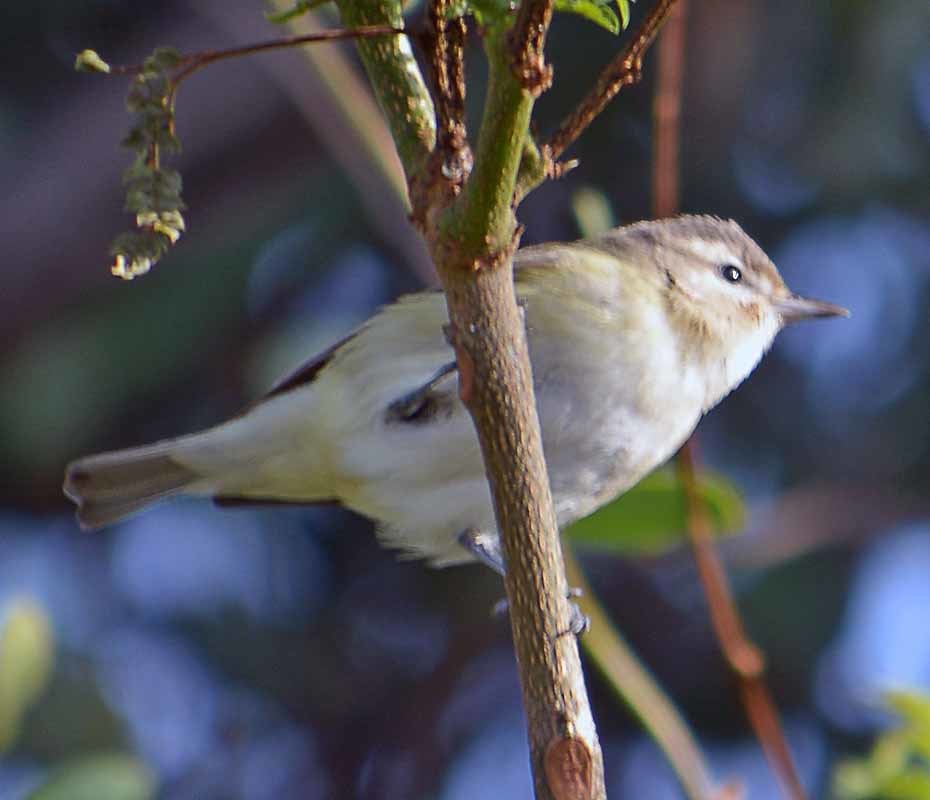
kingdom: Animalia
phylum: Chordata
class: Aves
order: Passeriformes
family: Vireonidae
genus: Vireo
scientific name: Vireo gilvus
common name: Warbling vireo
